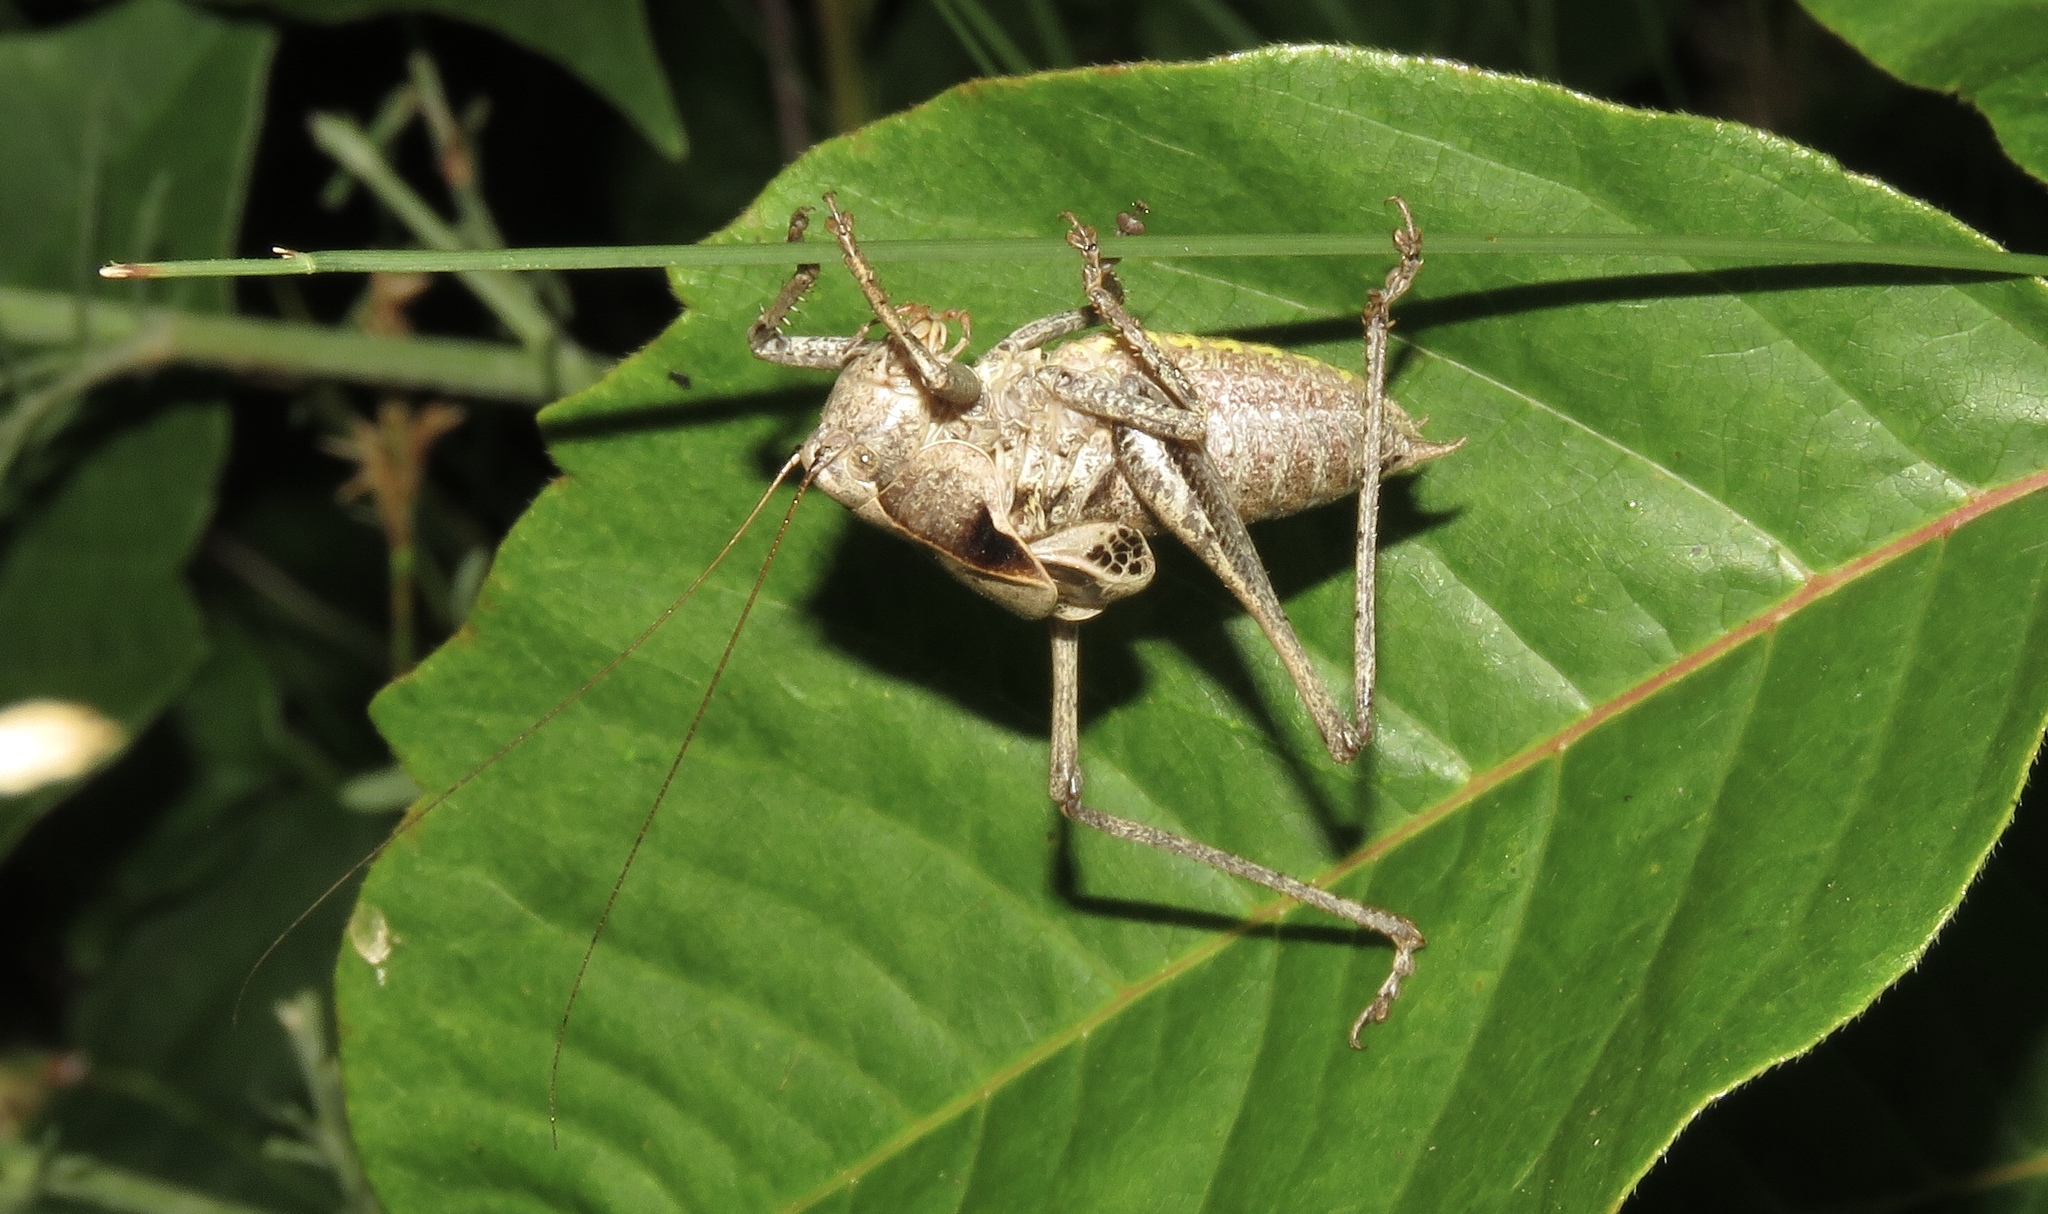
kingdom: Animalia
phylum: Arthropoda
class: Insecta
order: Orthoptera
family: Tettigoniidae
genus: Atlanticus
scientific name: Atlanticus davisi
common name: Davis's shield-bearer
